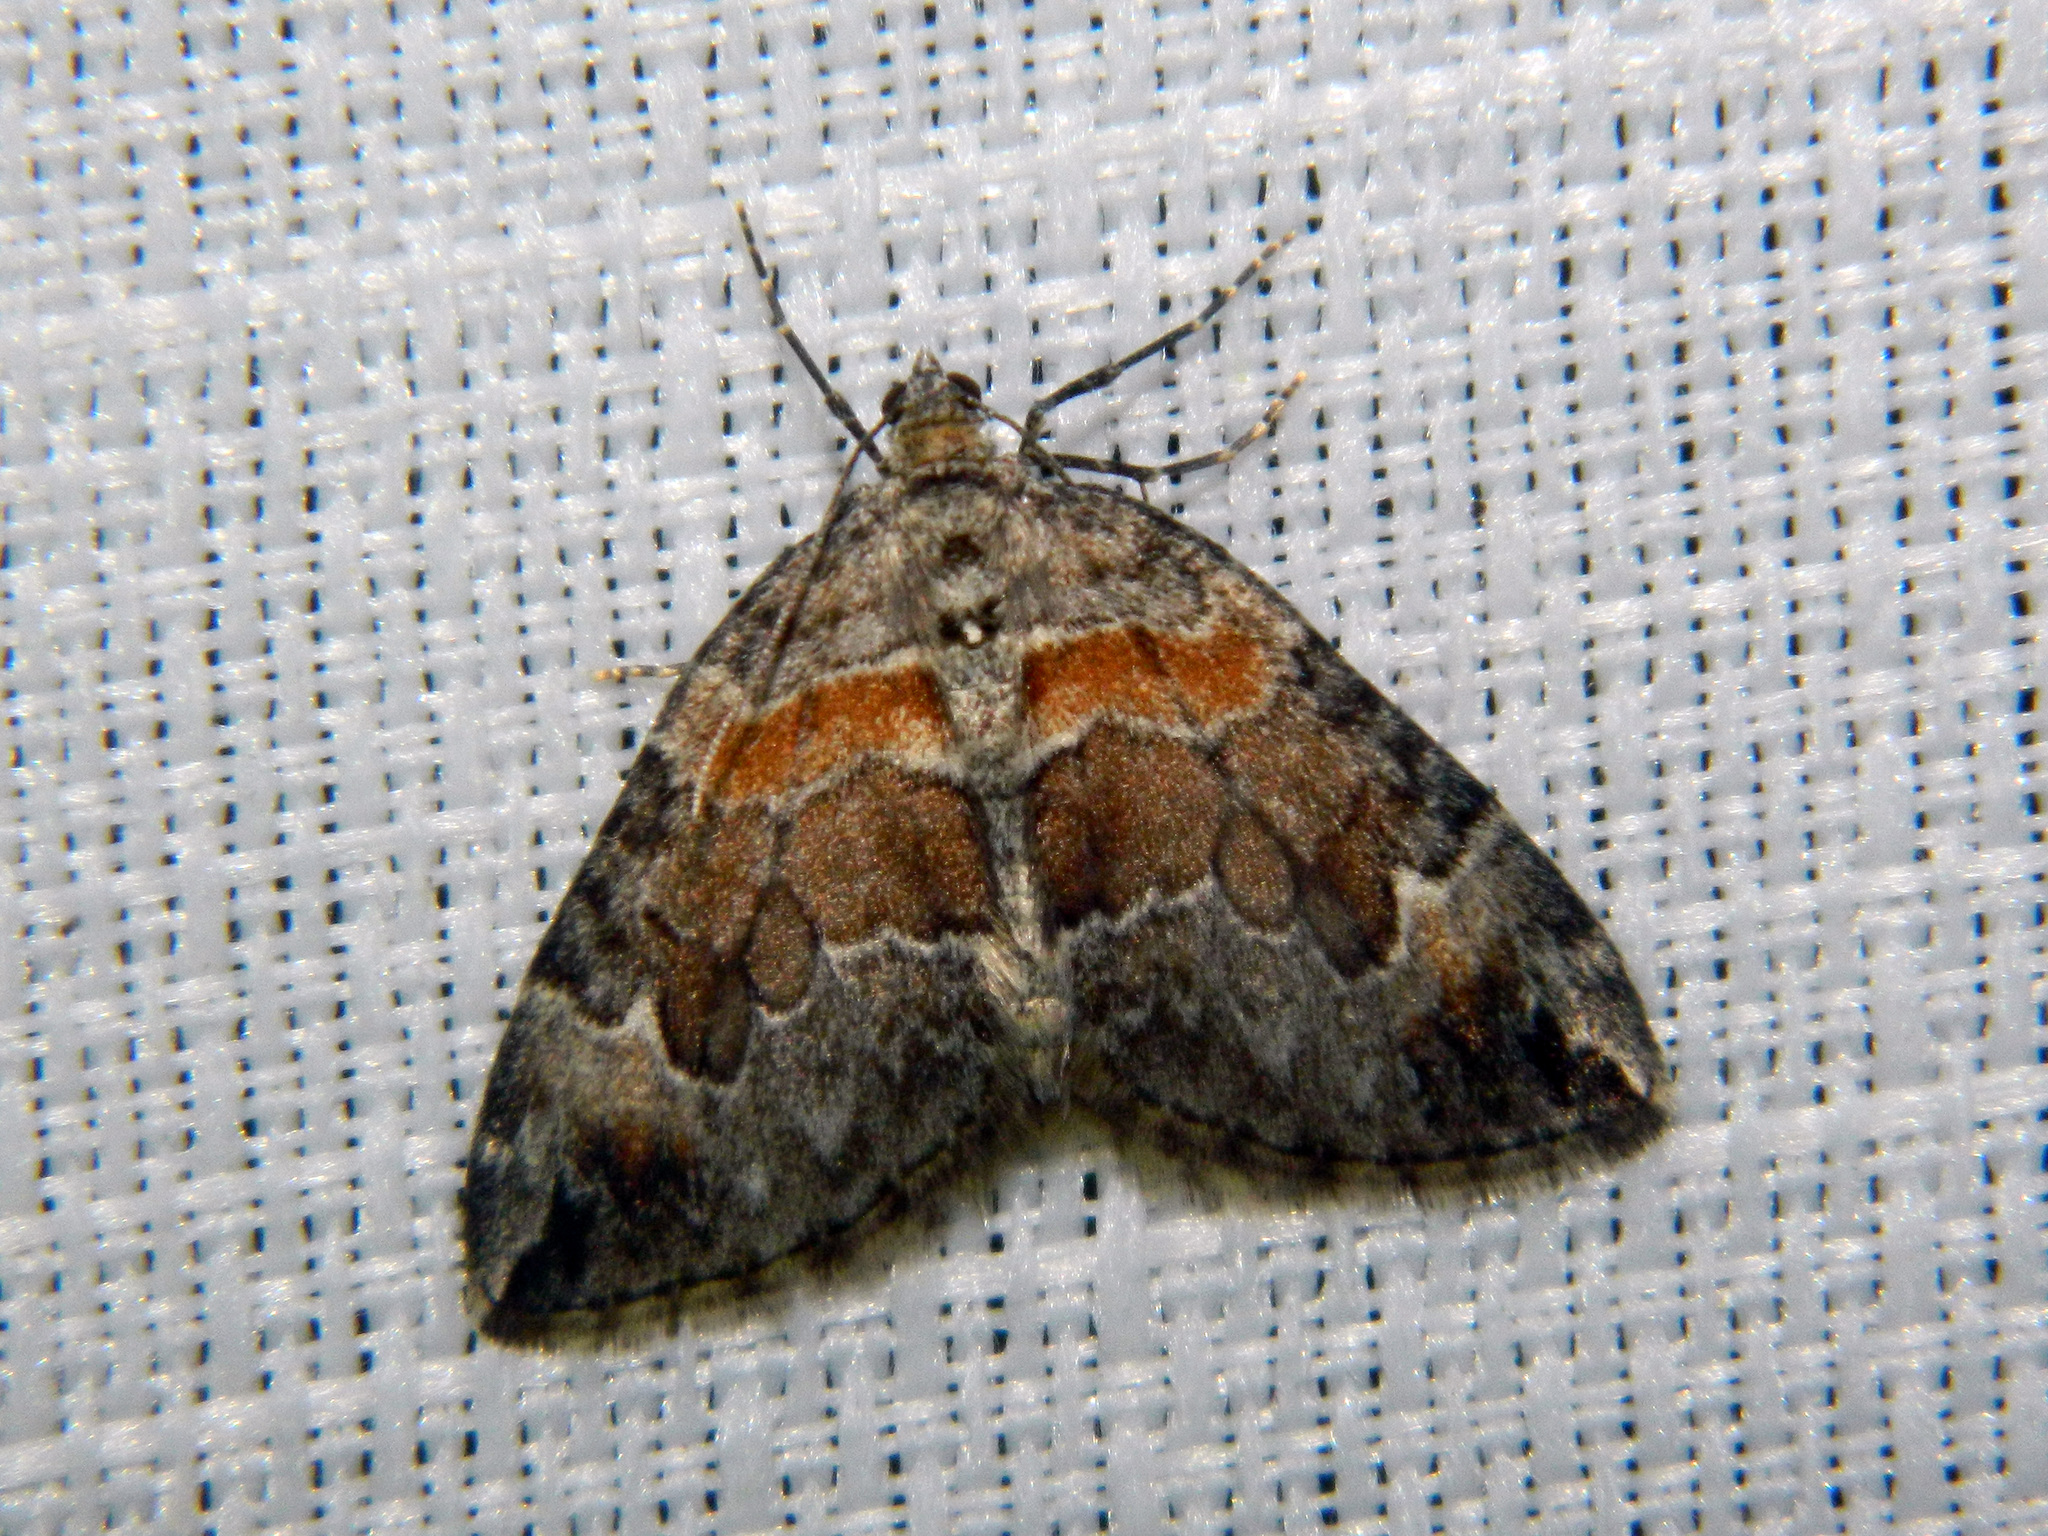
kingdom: Animalia
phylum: Arthropoda
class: Insecta
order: Lepidoptera
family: Geometridae
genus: Dysstroma
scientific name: Dysstroma hersiliata
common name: Orange-barred carpet
